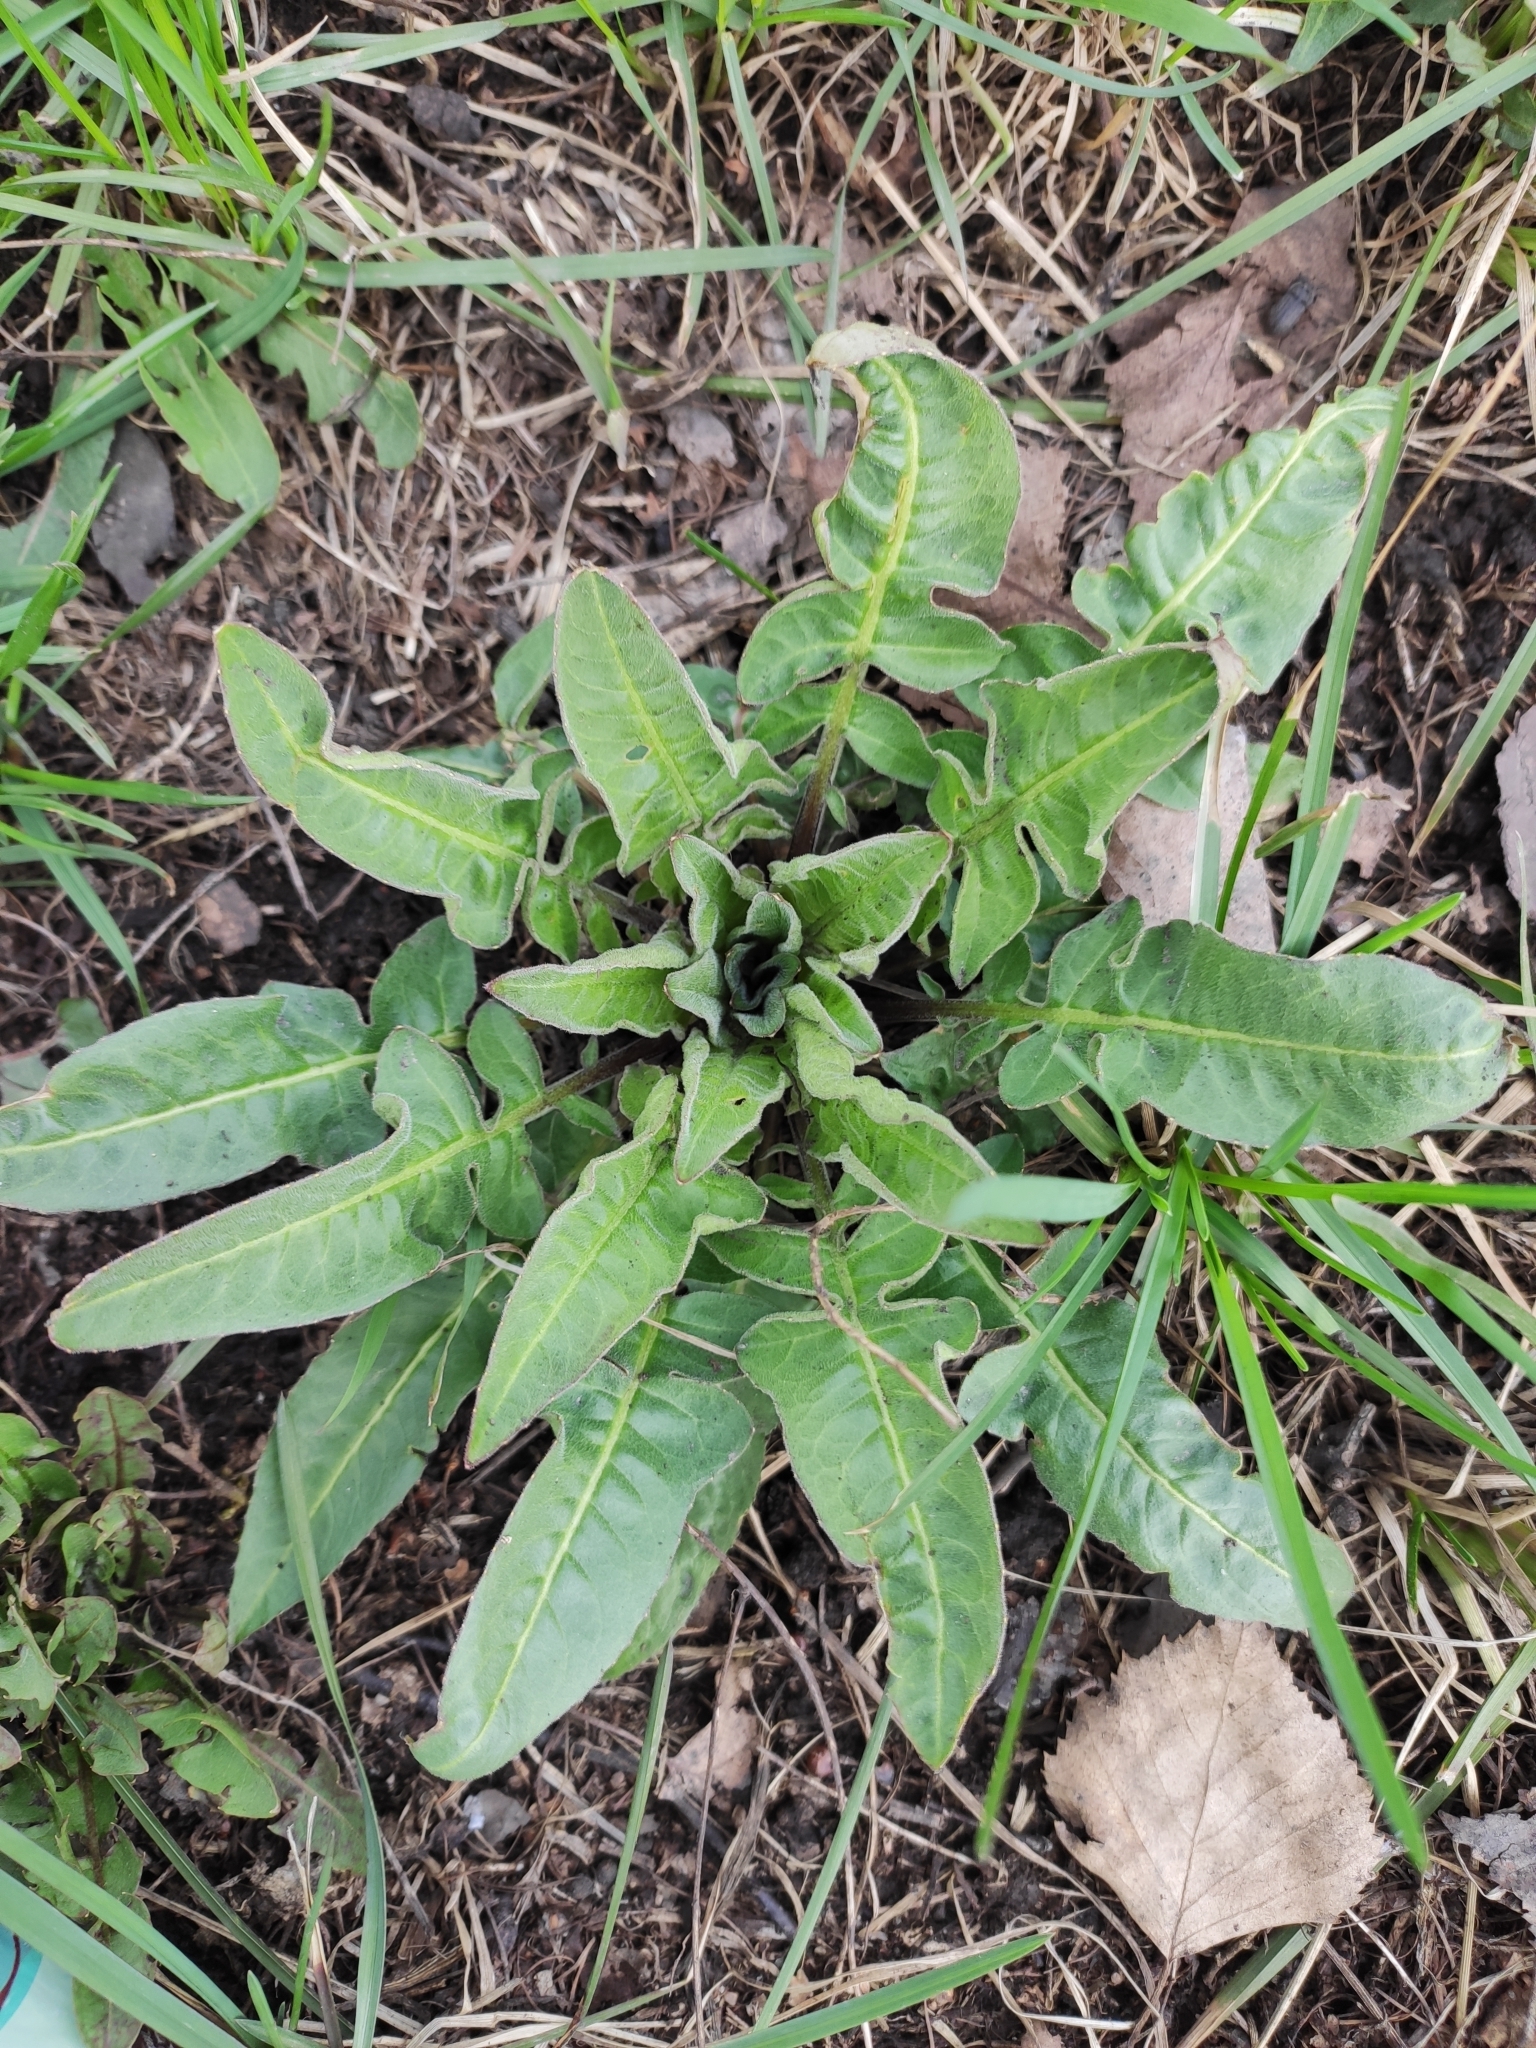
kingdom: Plantae
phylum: Tracheophyta
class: Magnoliopsida
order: Brassicales
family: Brassicaceae
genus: Bunias
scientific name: Bunias orientalis
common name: Warty-cabbage
